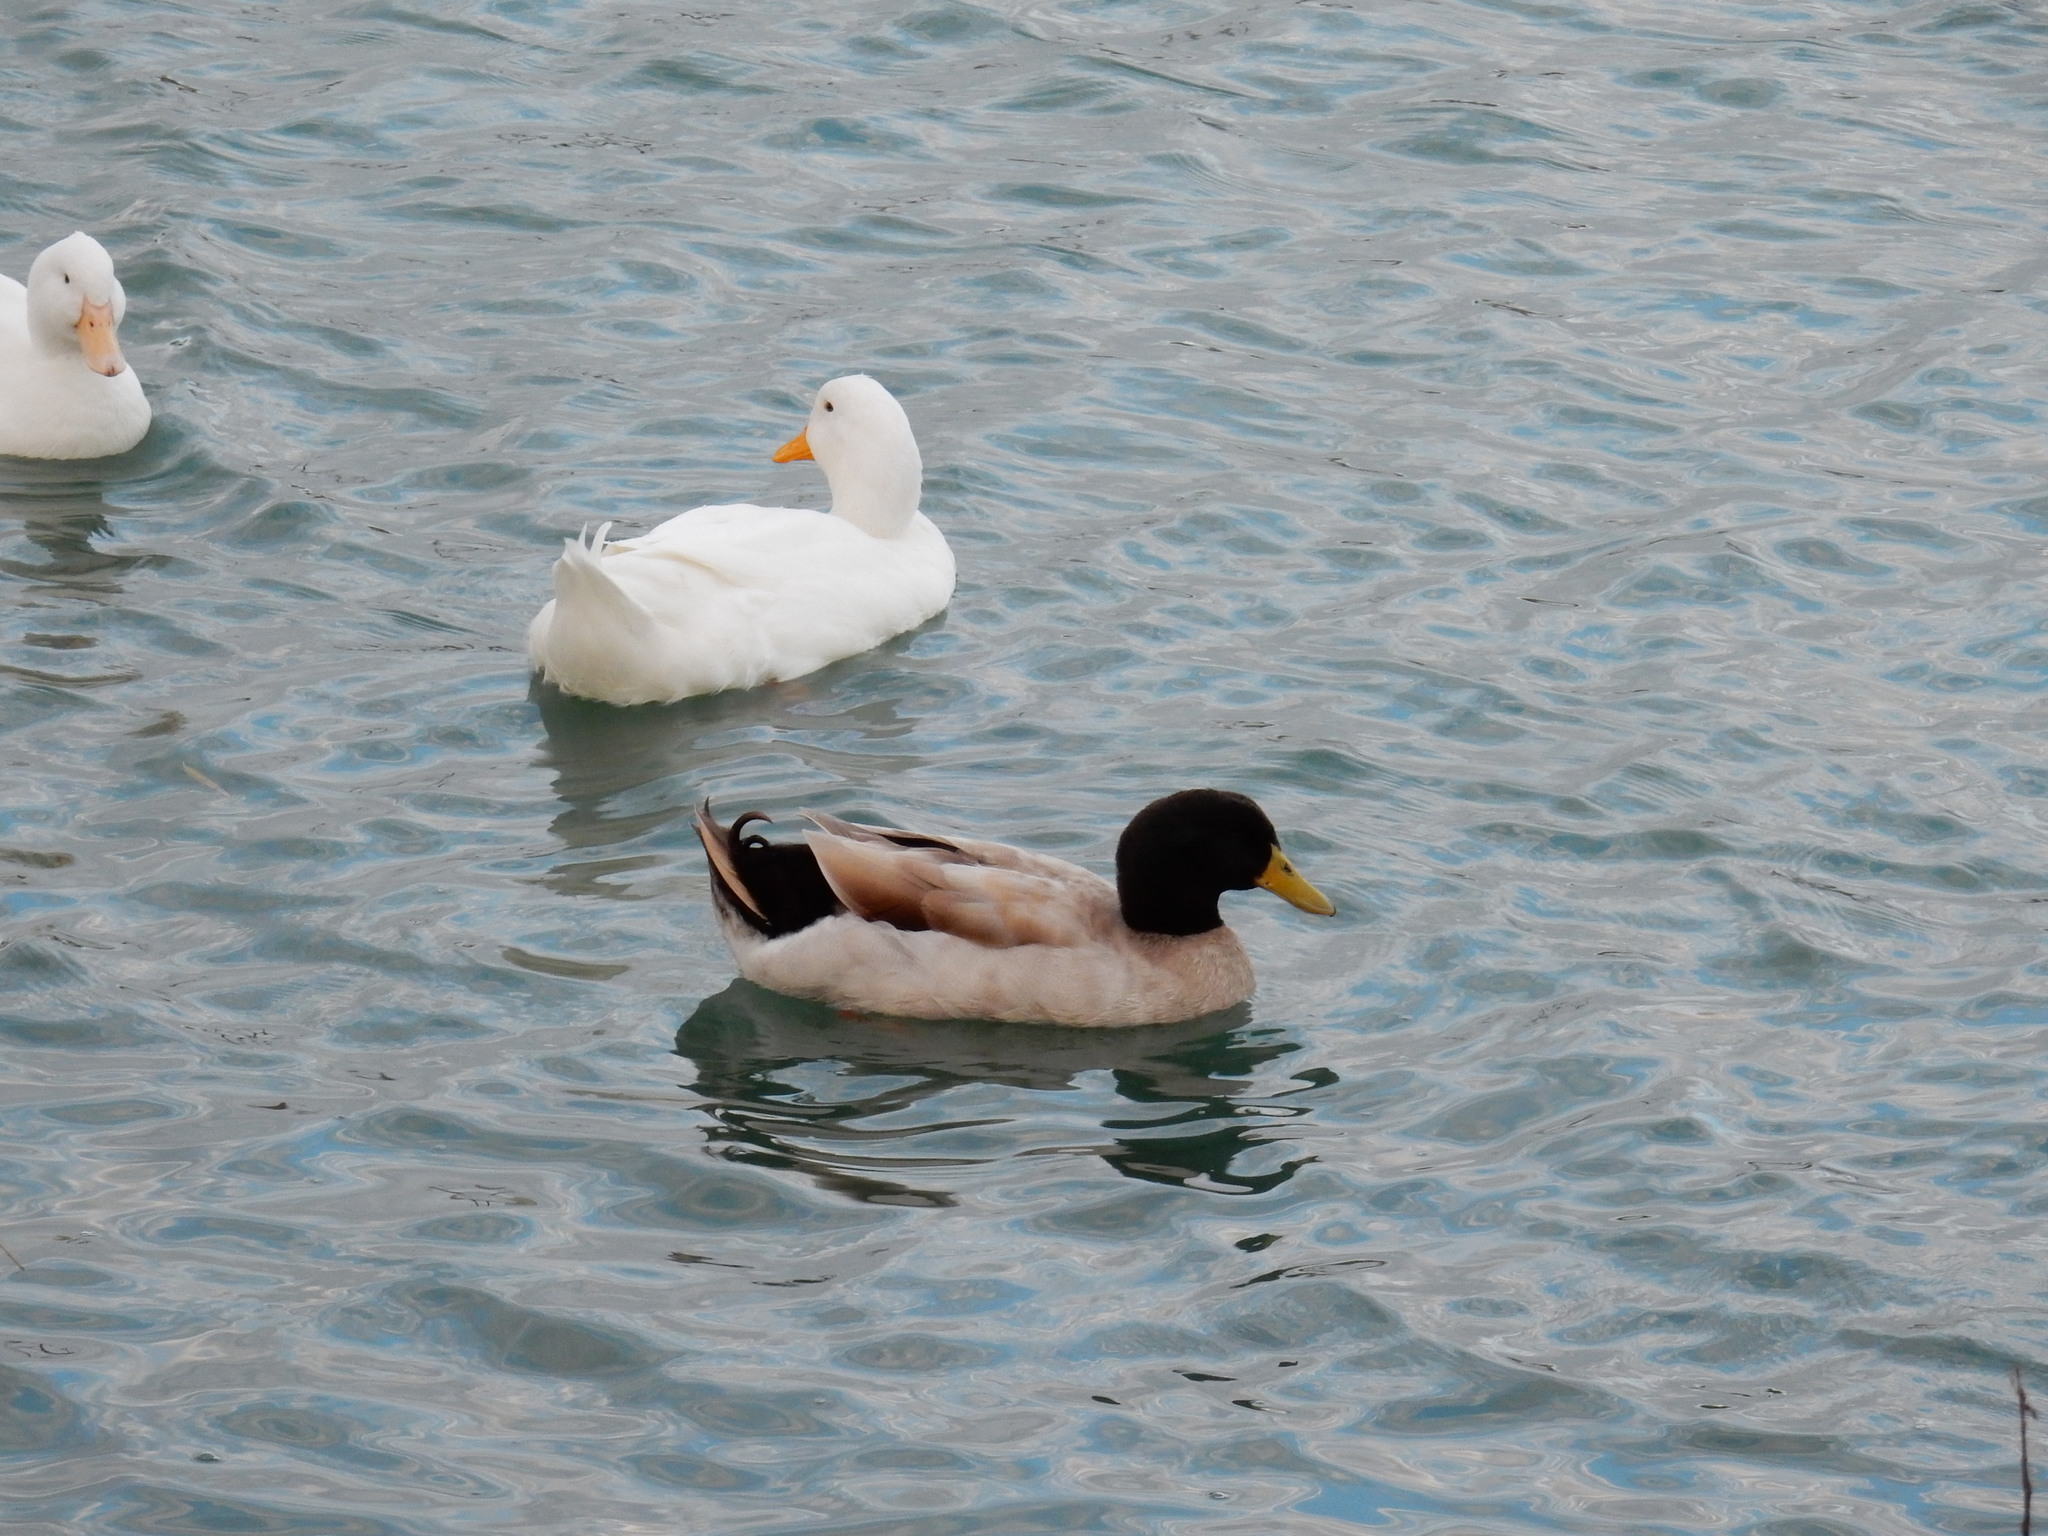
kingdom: Animalia
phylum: Chordata
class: Aves
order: Anseriformes
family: Anatidae
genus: Anas
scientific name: Anas platyrhynchos
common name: Mallard
